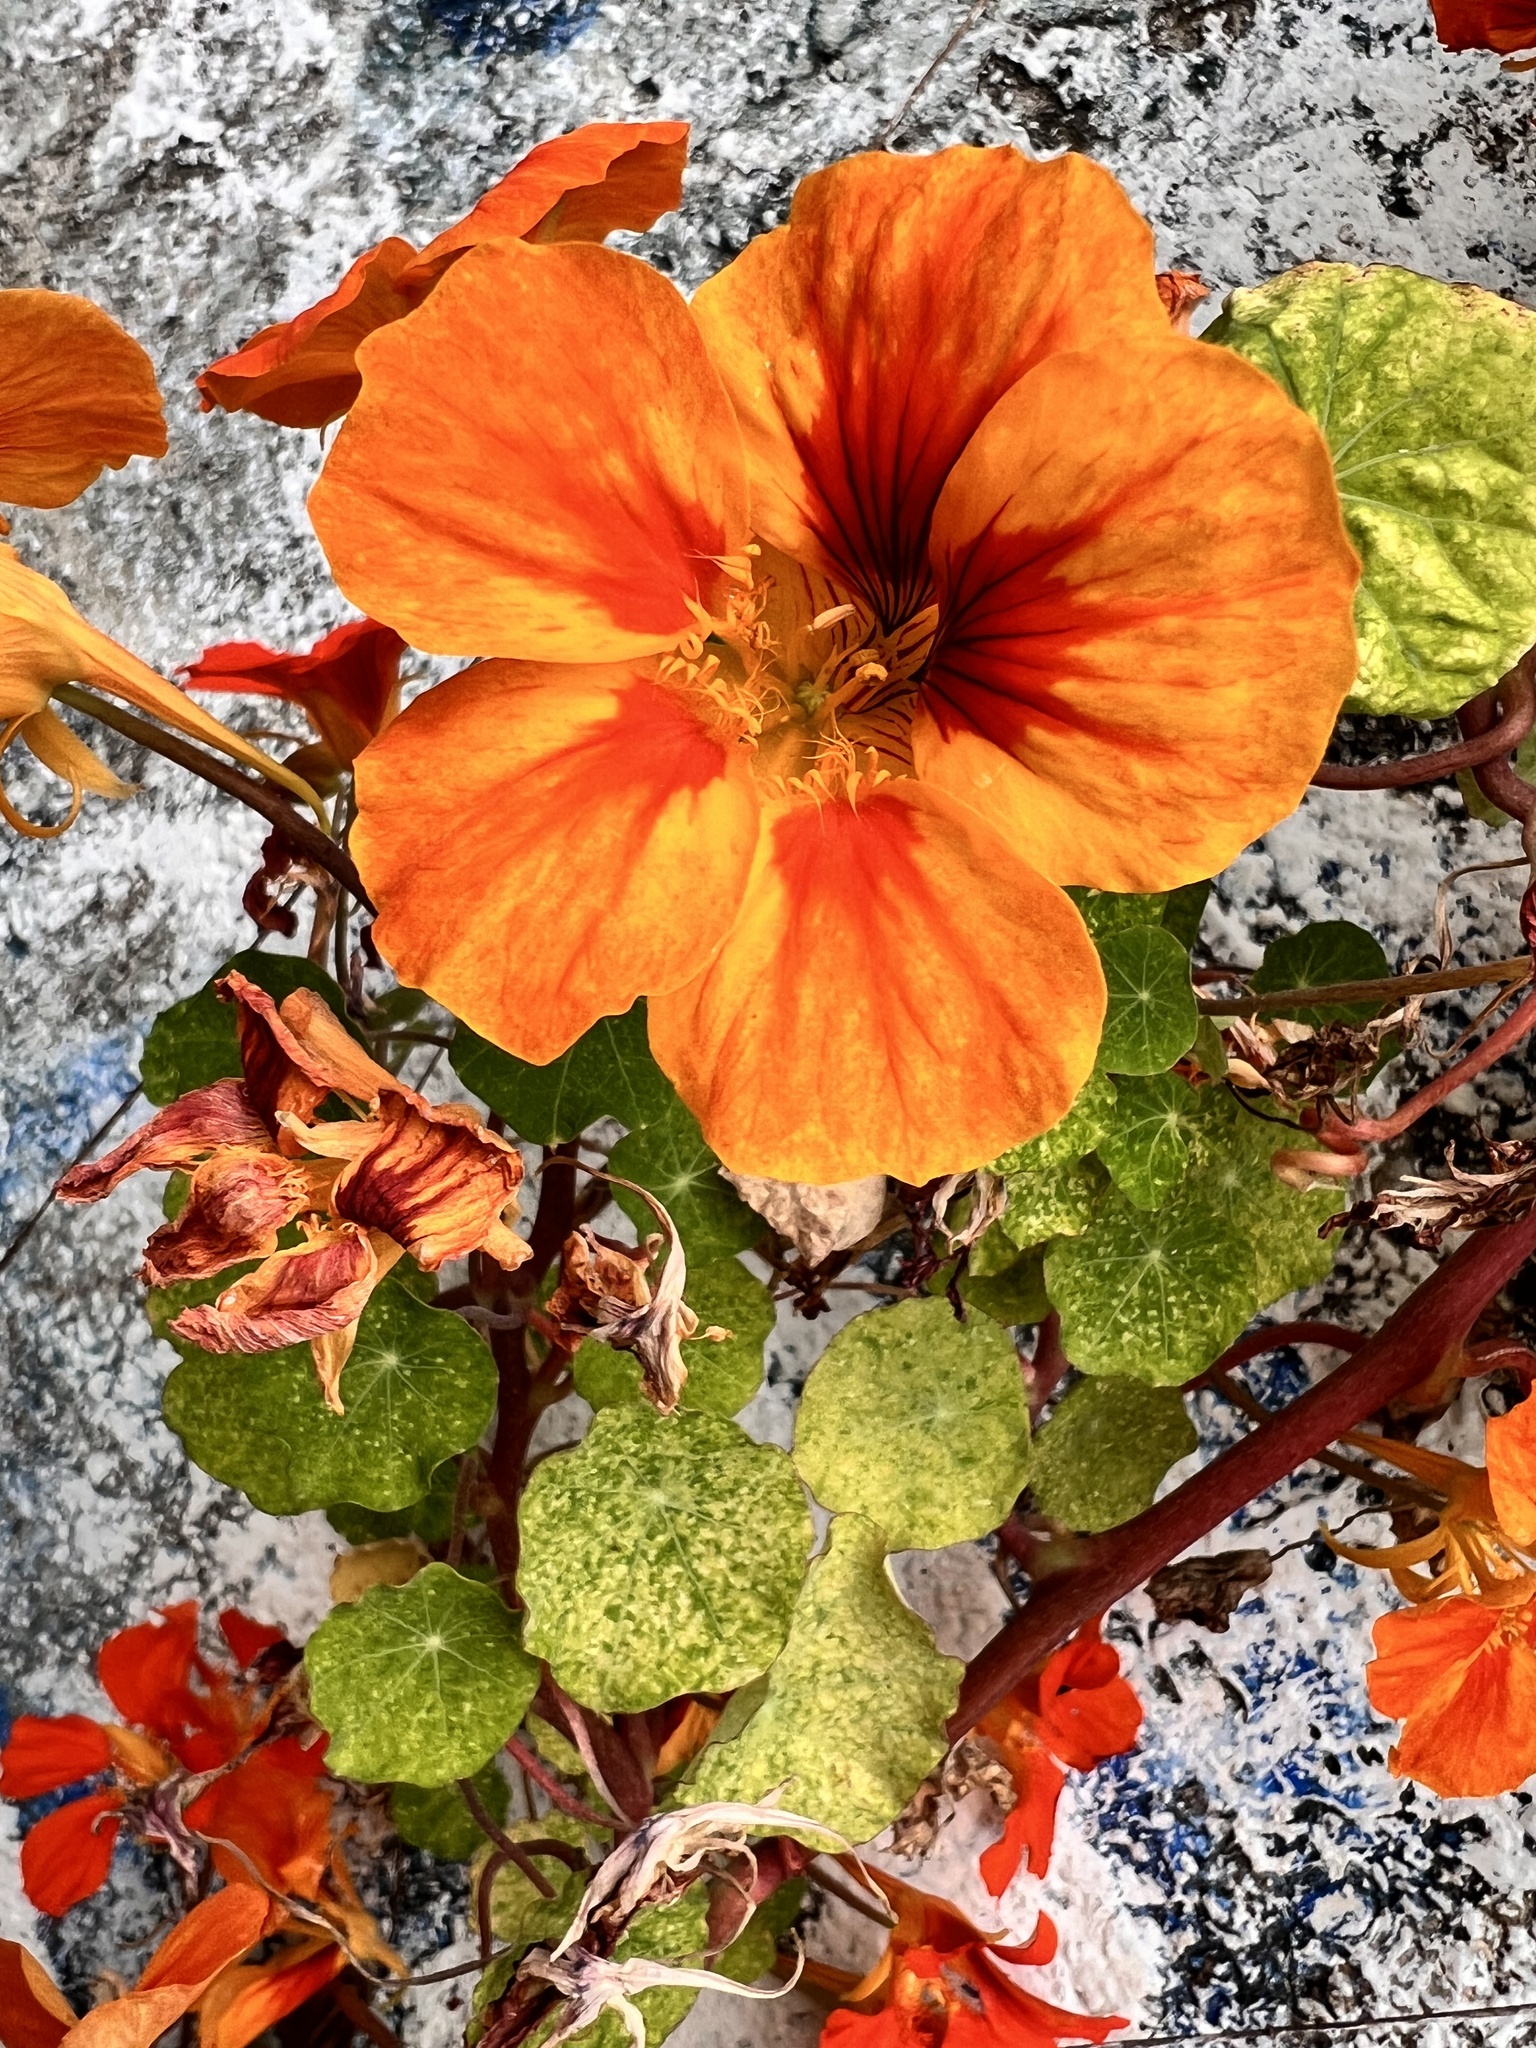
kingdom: Plantae
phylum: Tracheophyta
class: Magnoliopsida
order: Brassicales
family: Tropaeolaceae
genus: Tropaeolum
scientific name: Tropaeolum majus
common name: Nasturtium
